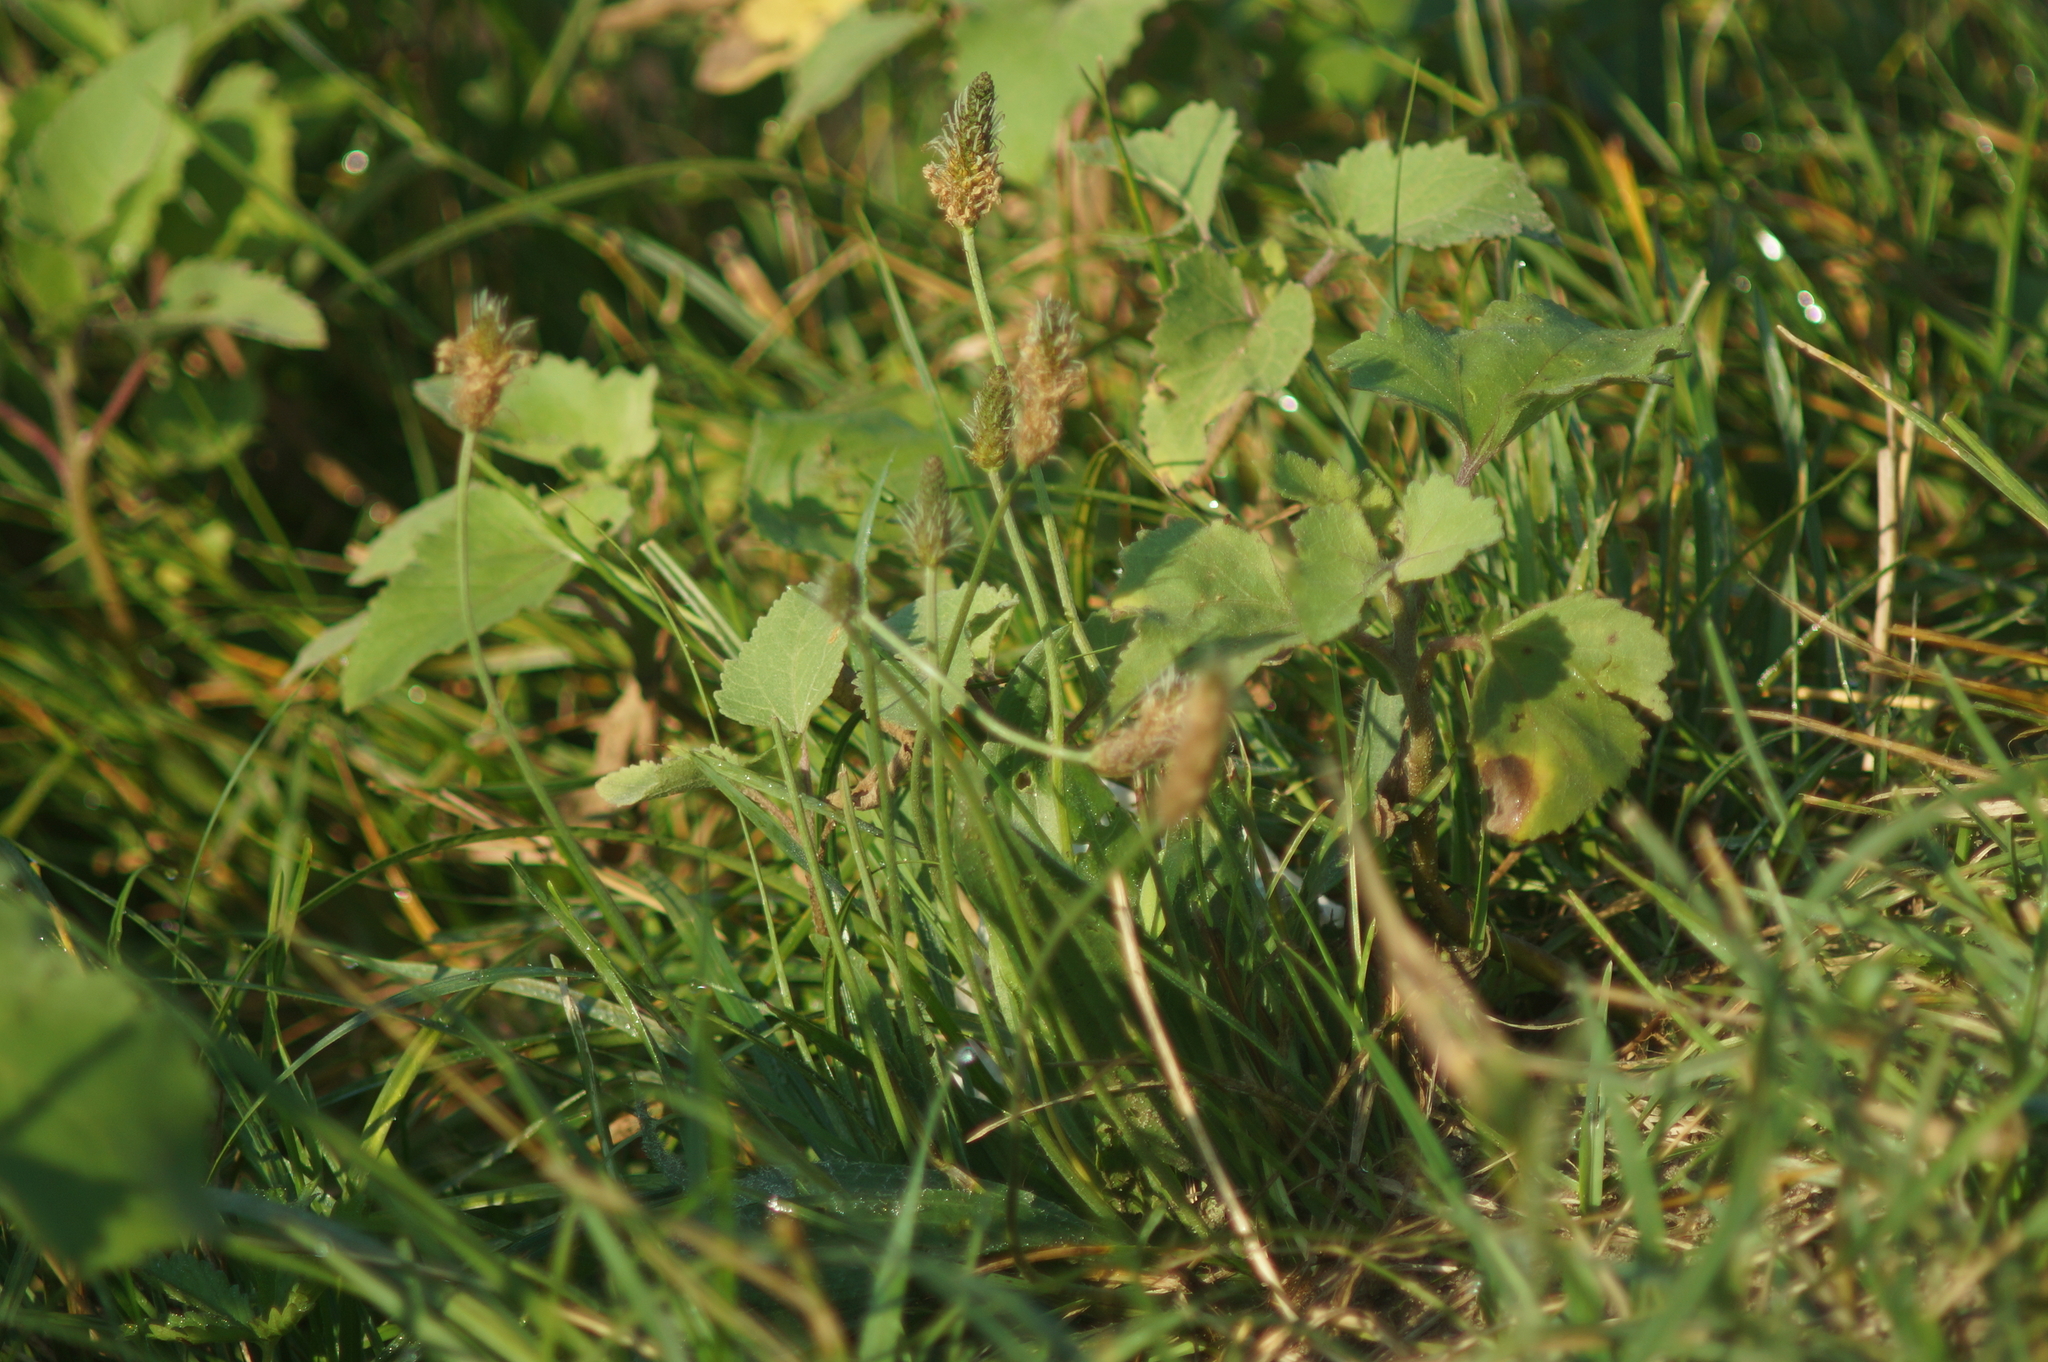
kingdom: Plantae
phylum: Tracheophyta
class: Magnoliopsida
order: Lamiales
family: Plantaginaceae
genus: Plantago
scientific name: Plantago lanceolata
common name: Ribwort plantain
